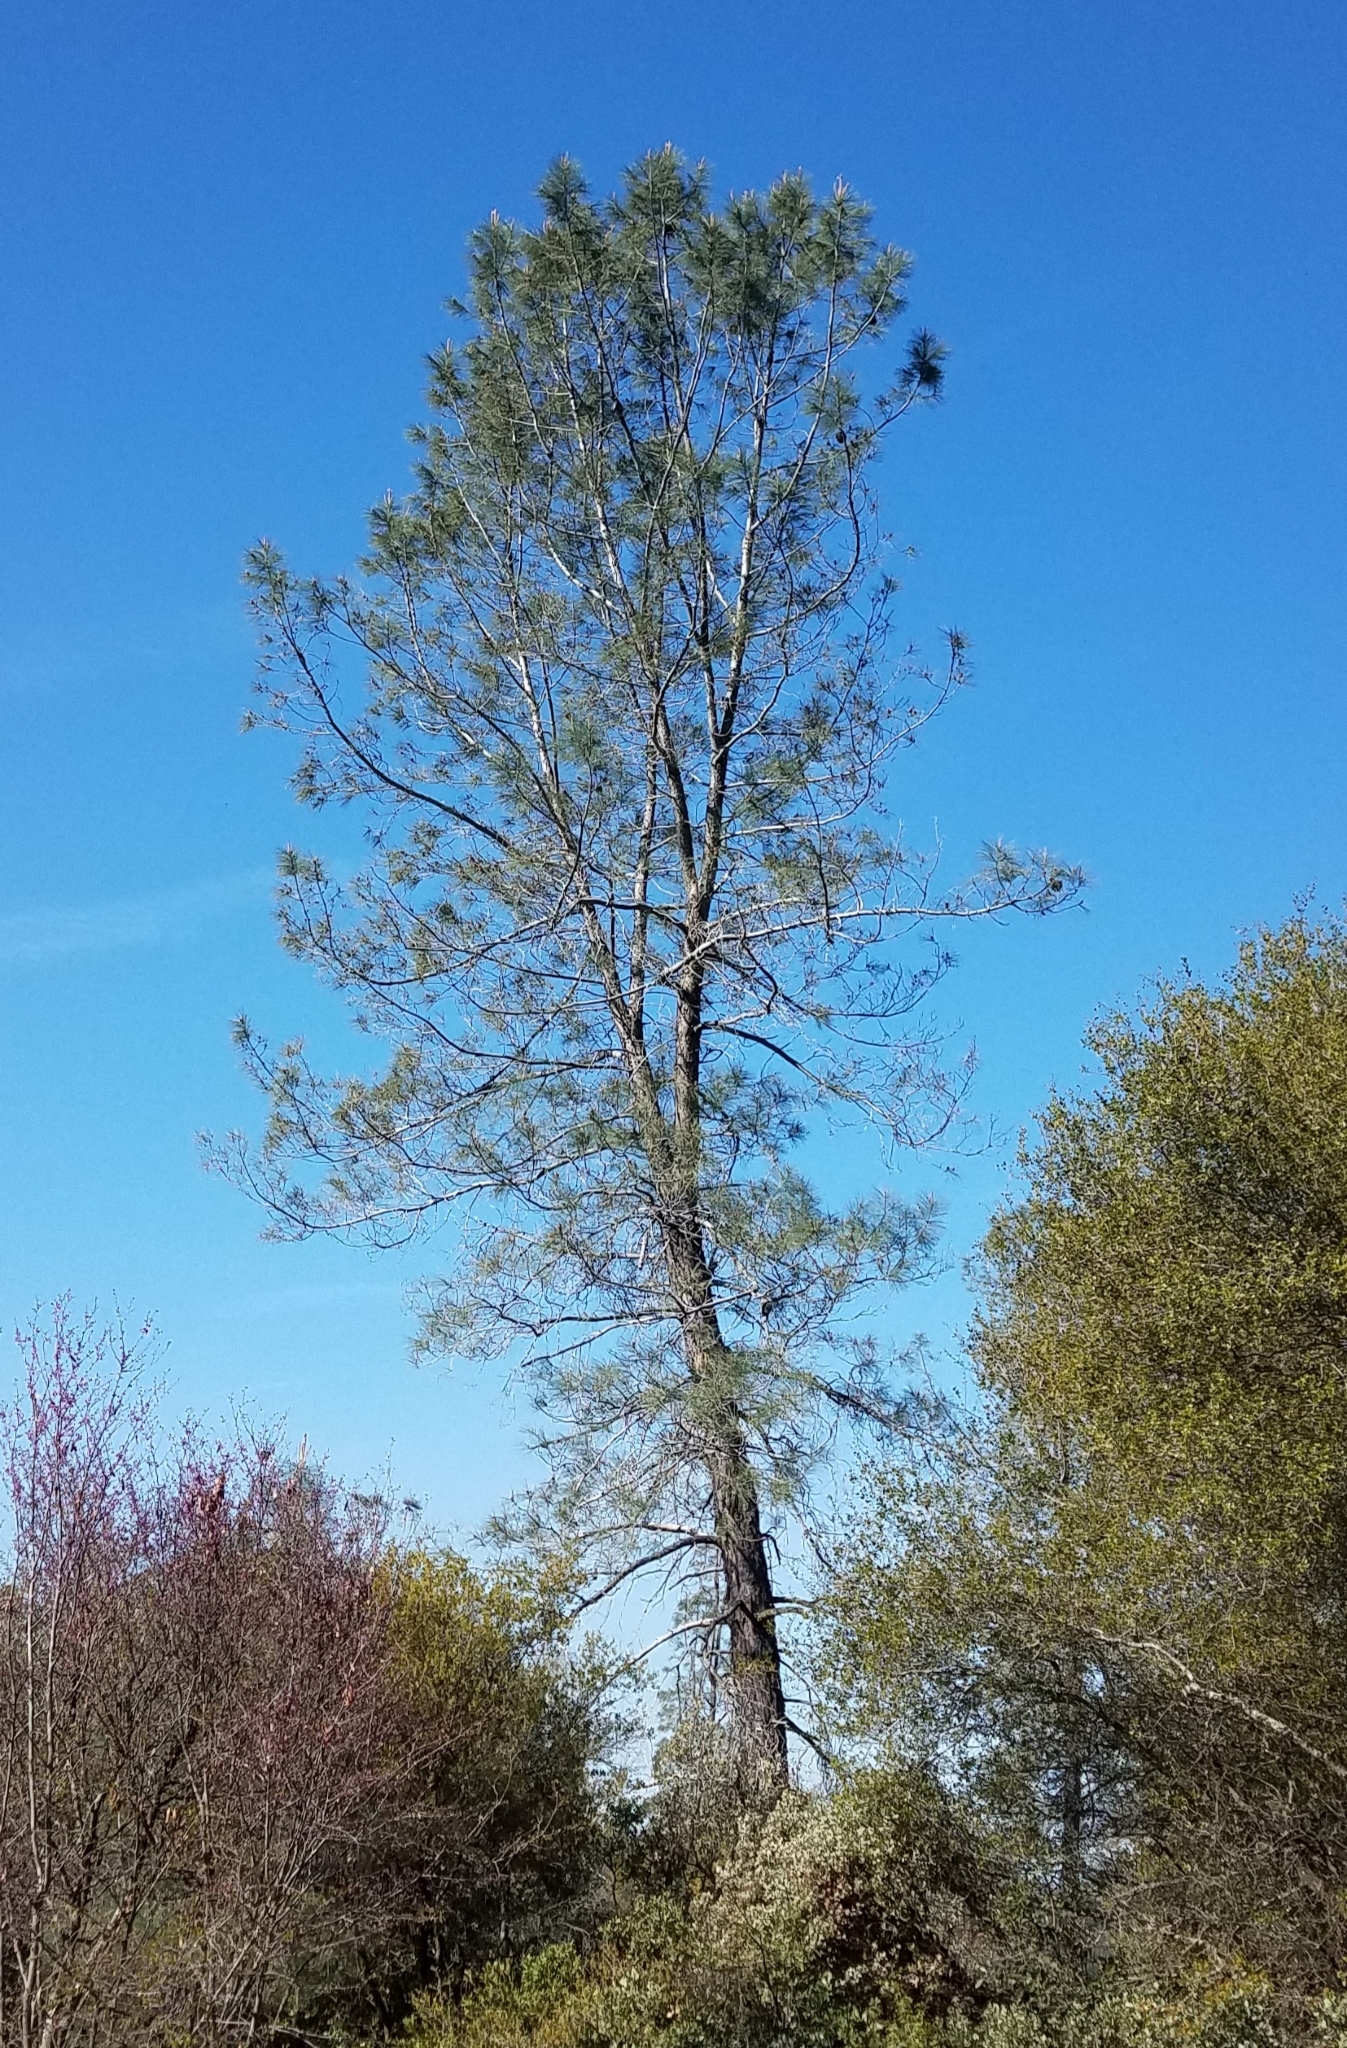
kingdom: Plantae
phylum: Tracheophyta
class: Pinopsida
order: Pinales
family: Pinaceae
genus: Pinus
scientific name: Pinus sabiniana
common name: Bull pine
